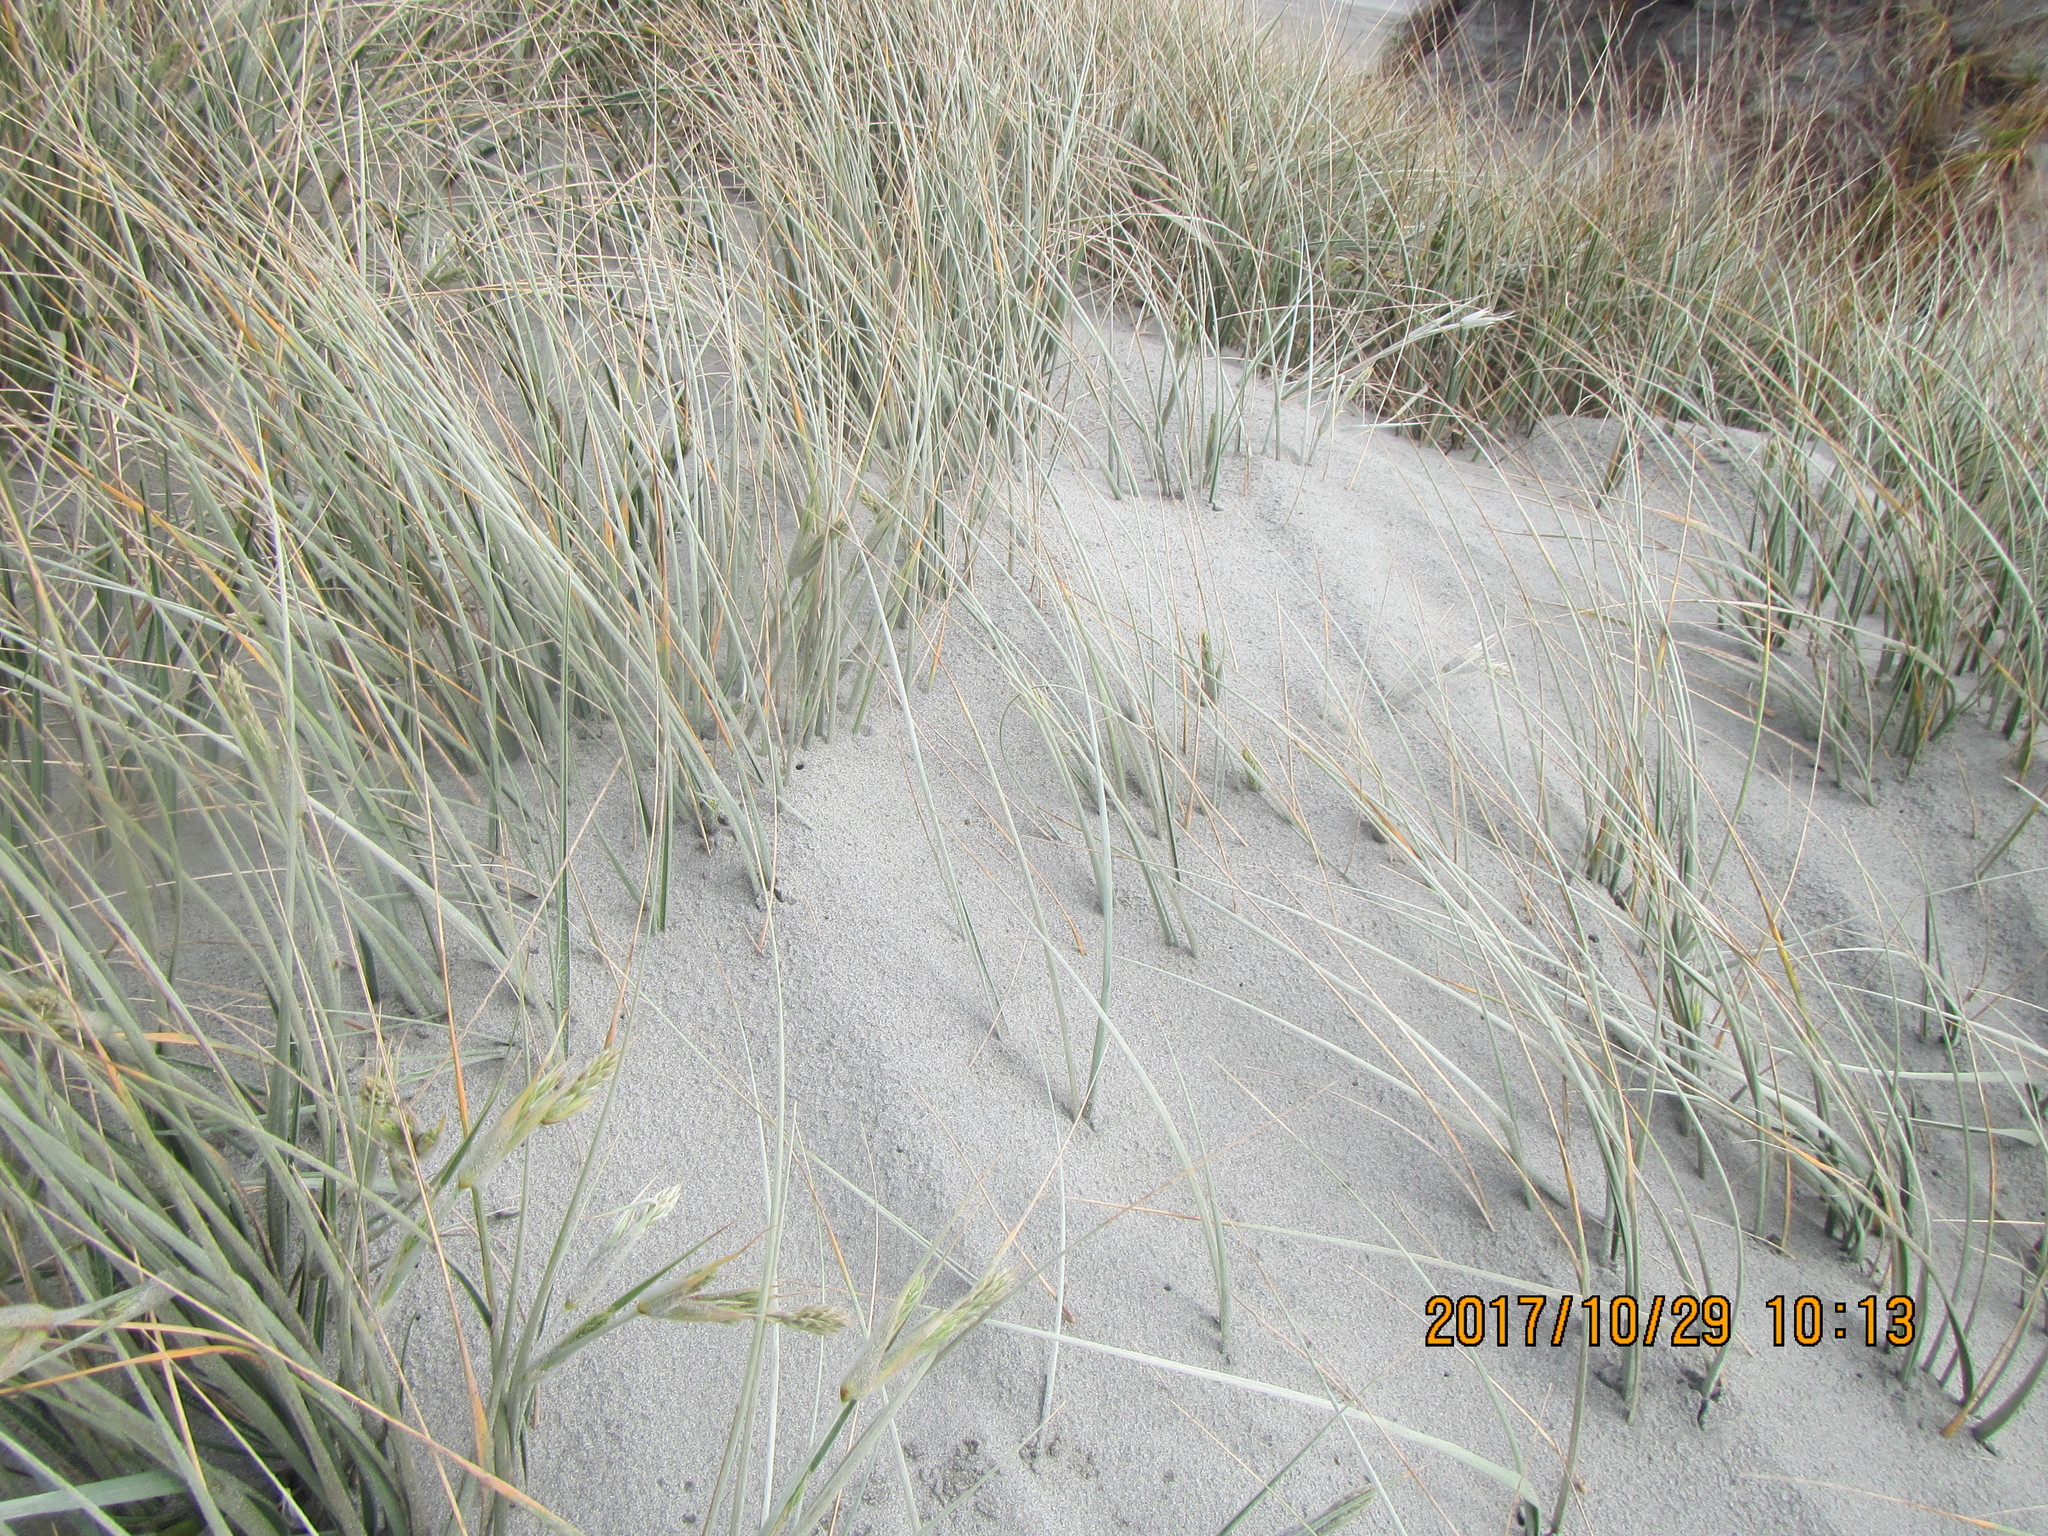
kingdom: Plantae
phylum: Tracheophyta
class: Liliopsida
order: Poales
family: Poaceae
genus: Spinifex
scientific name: Spinifex sericeus
